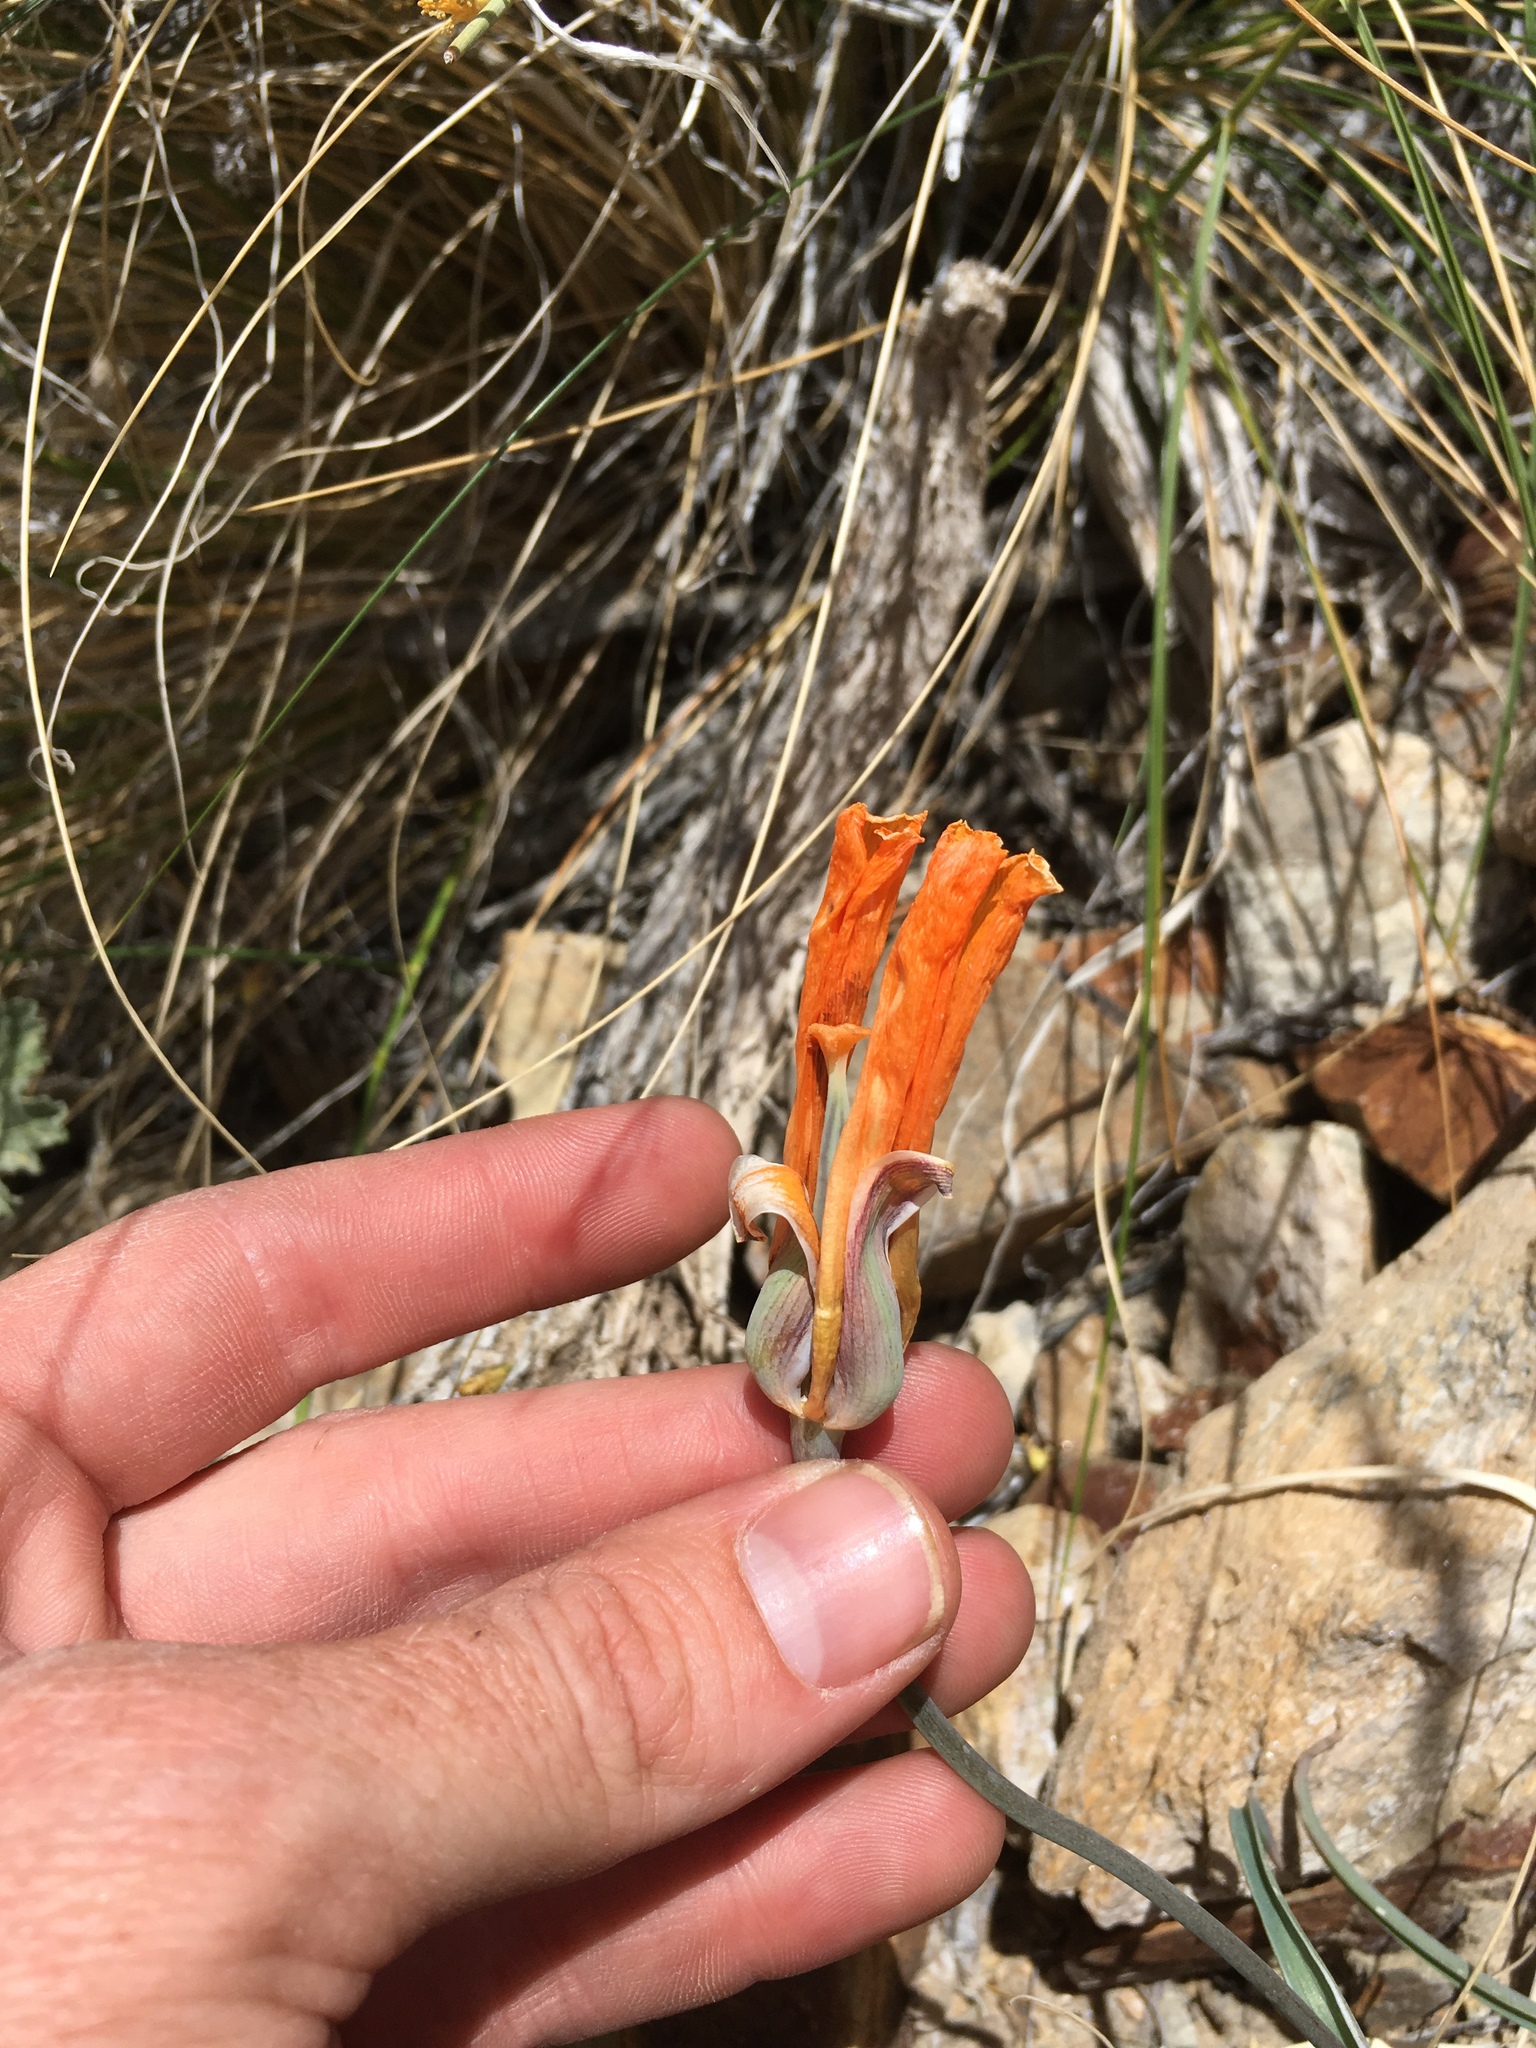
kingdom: Plantae
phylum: Tracheophyta
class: Liliopsida
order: Liliales
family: Liliaceae
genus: Calochortus
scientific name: Calochortus kennedyi
